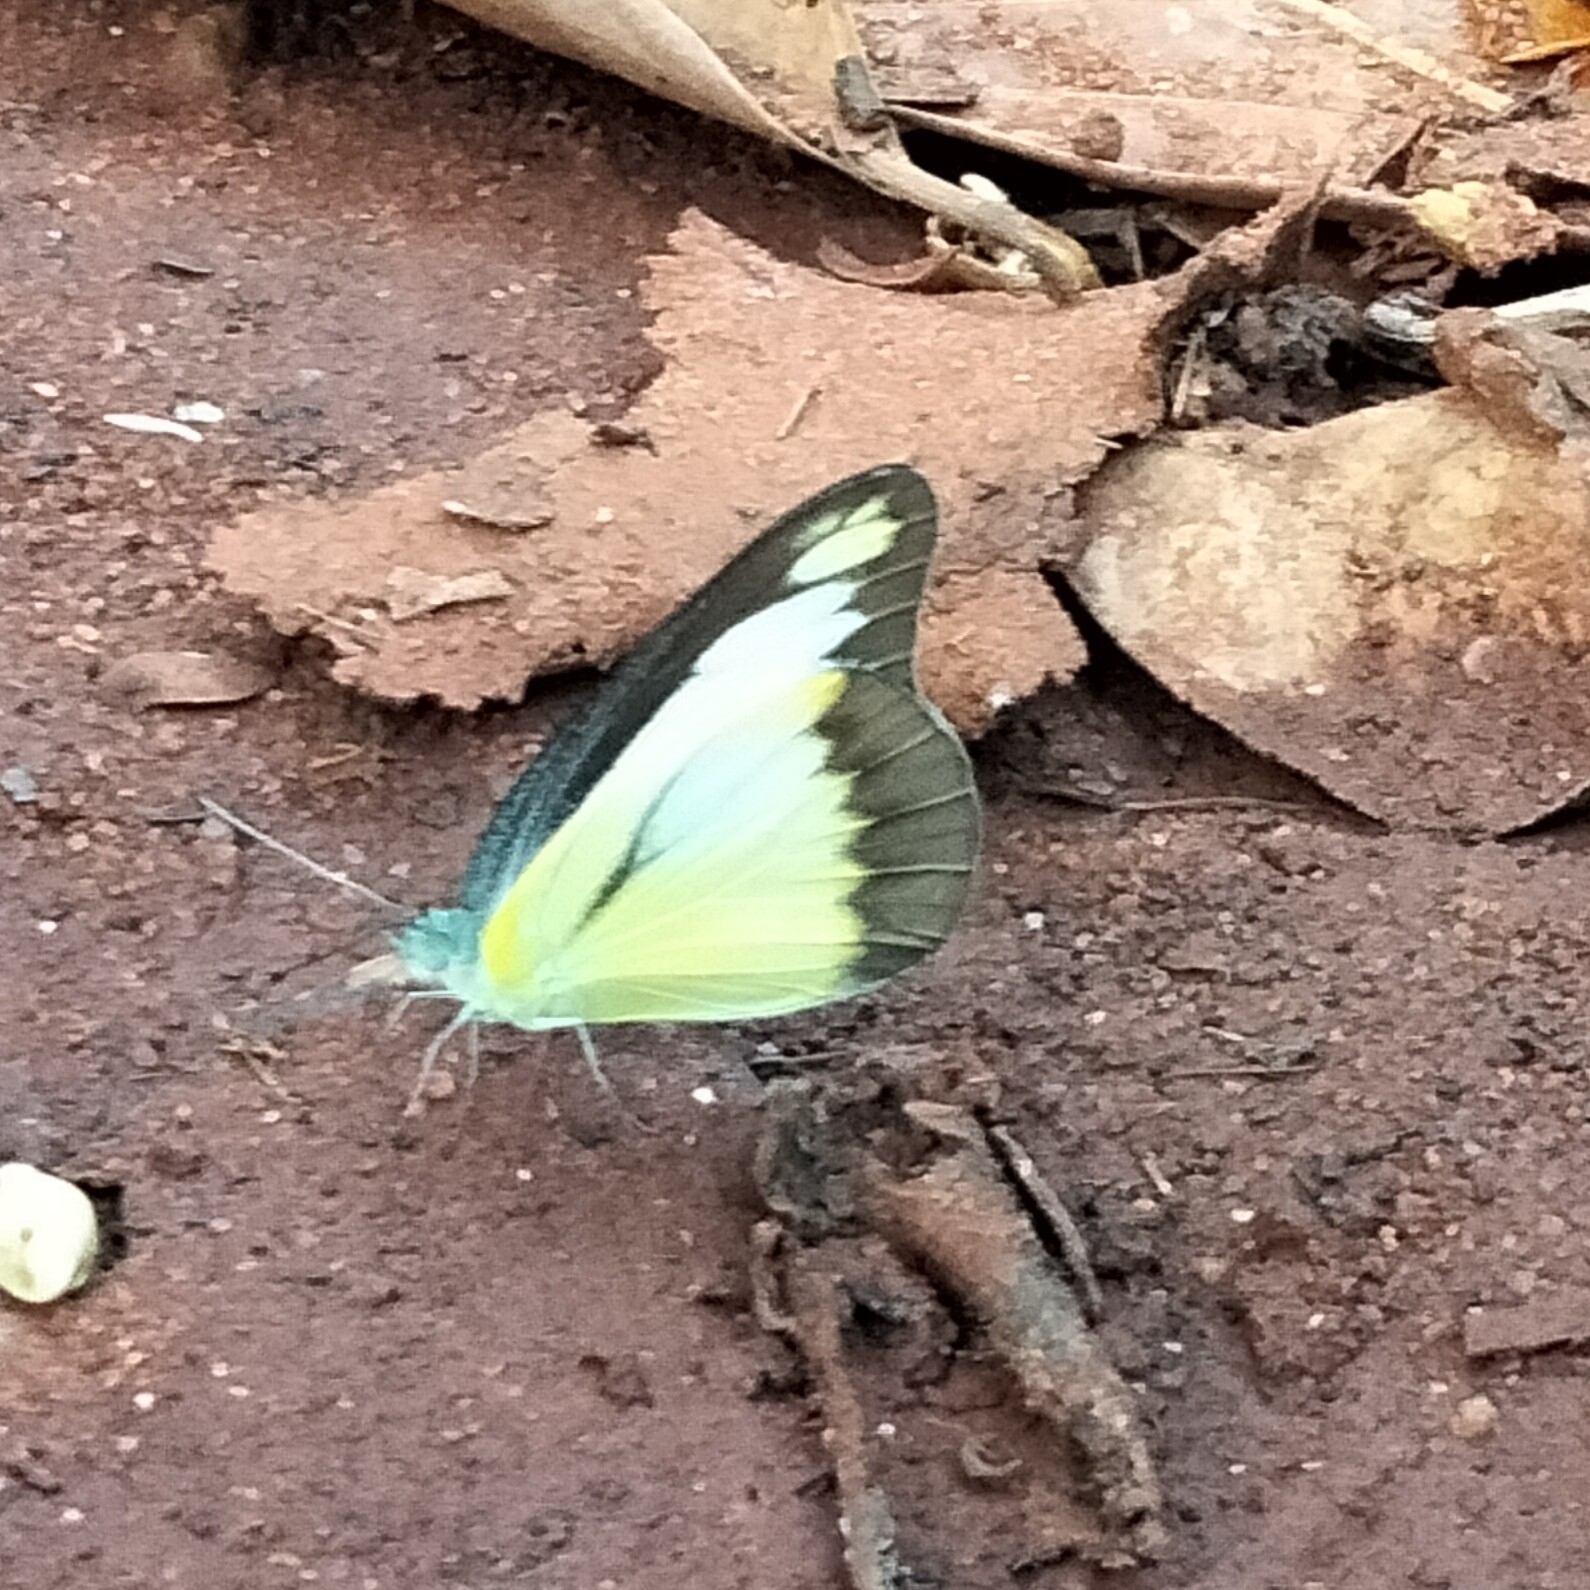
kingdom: Animalia
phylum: Arthropoda
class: Insecta
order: Lepidoptera
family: Pieridae
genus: Appias
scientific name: Appias lyncida
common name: Chocolate albatross
